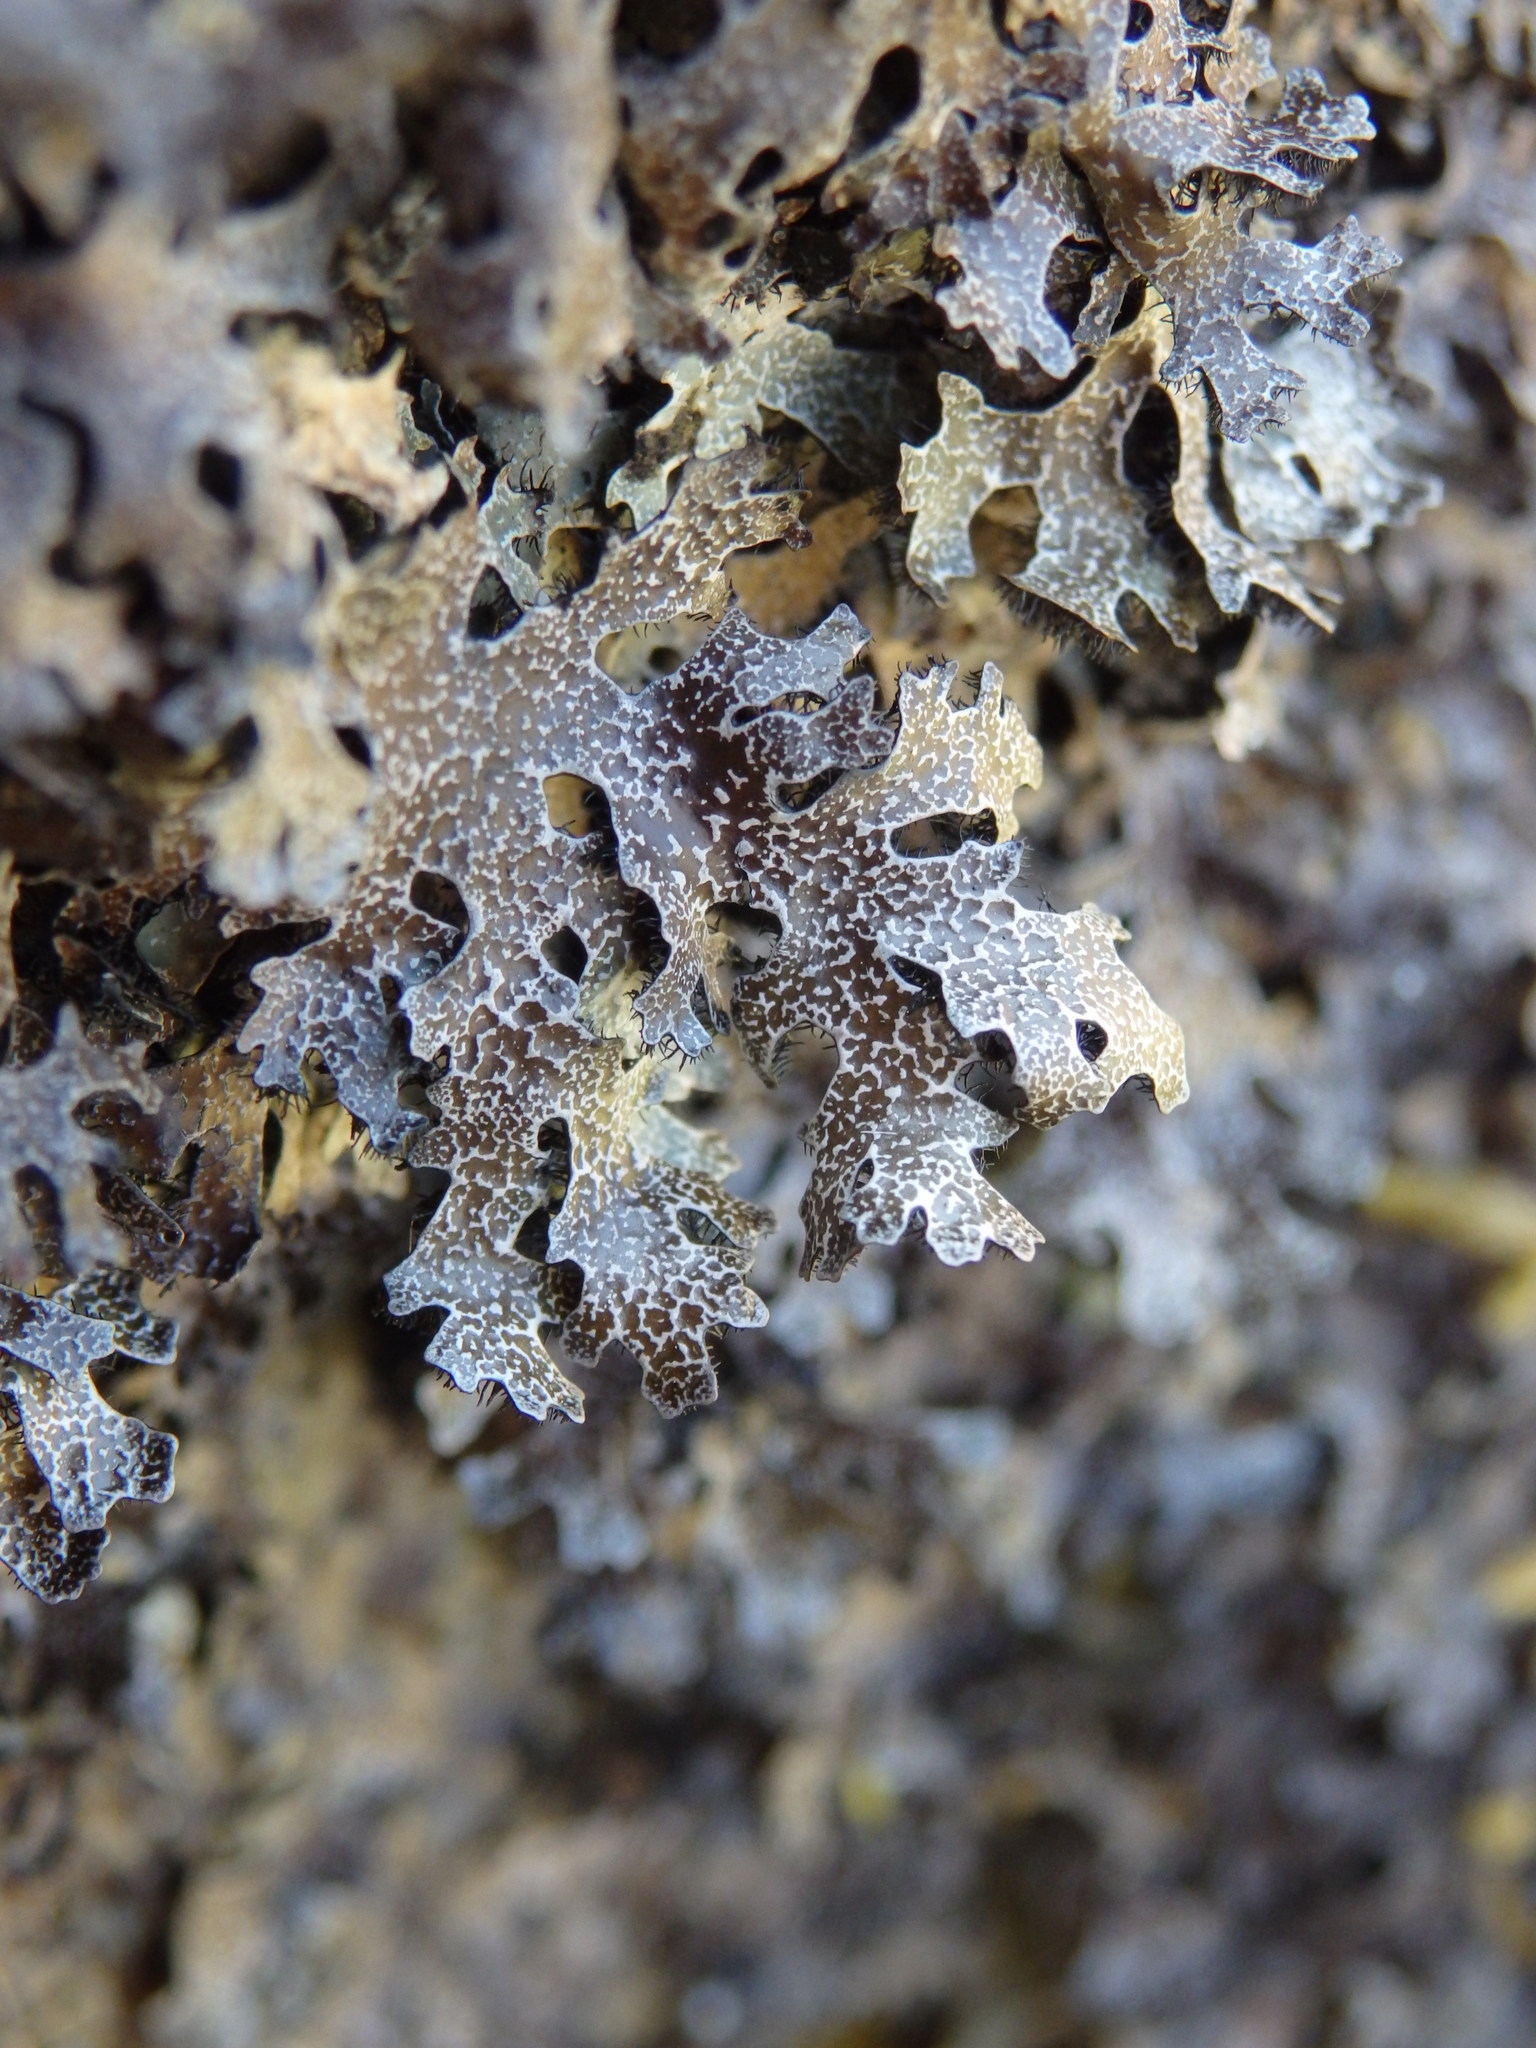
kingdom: Fungi
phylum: Ascomycota
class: Lecanoromycetes
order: Lecanorales
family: Parmeliaceae
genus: Parmelia
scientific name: Parmelia omphalodes
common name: Smoky crottle
